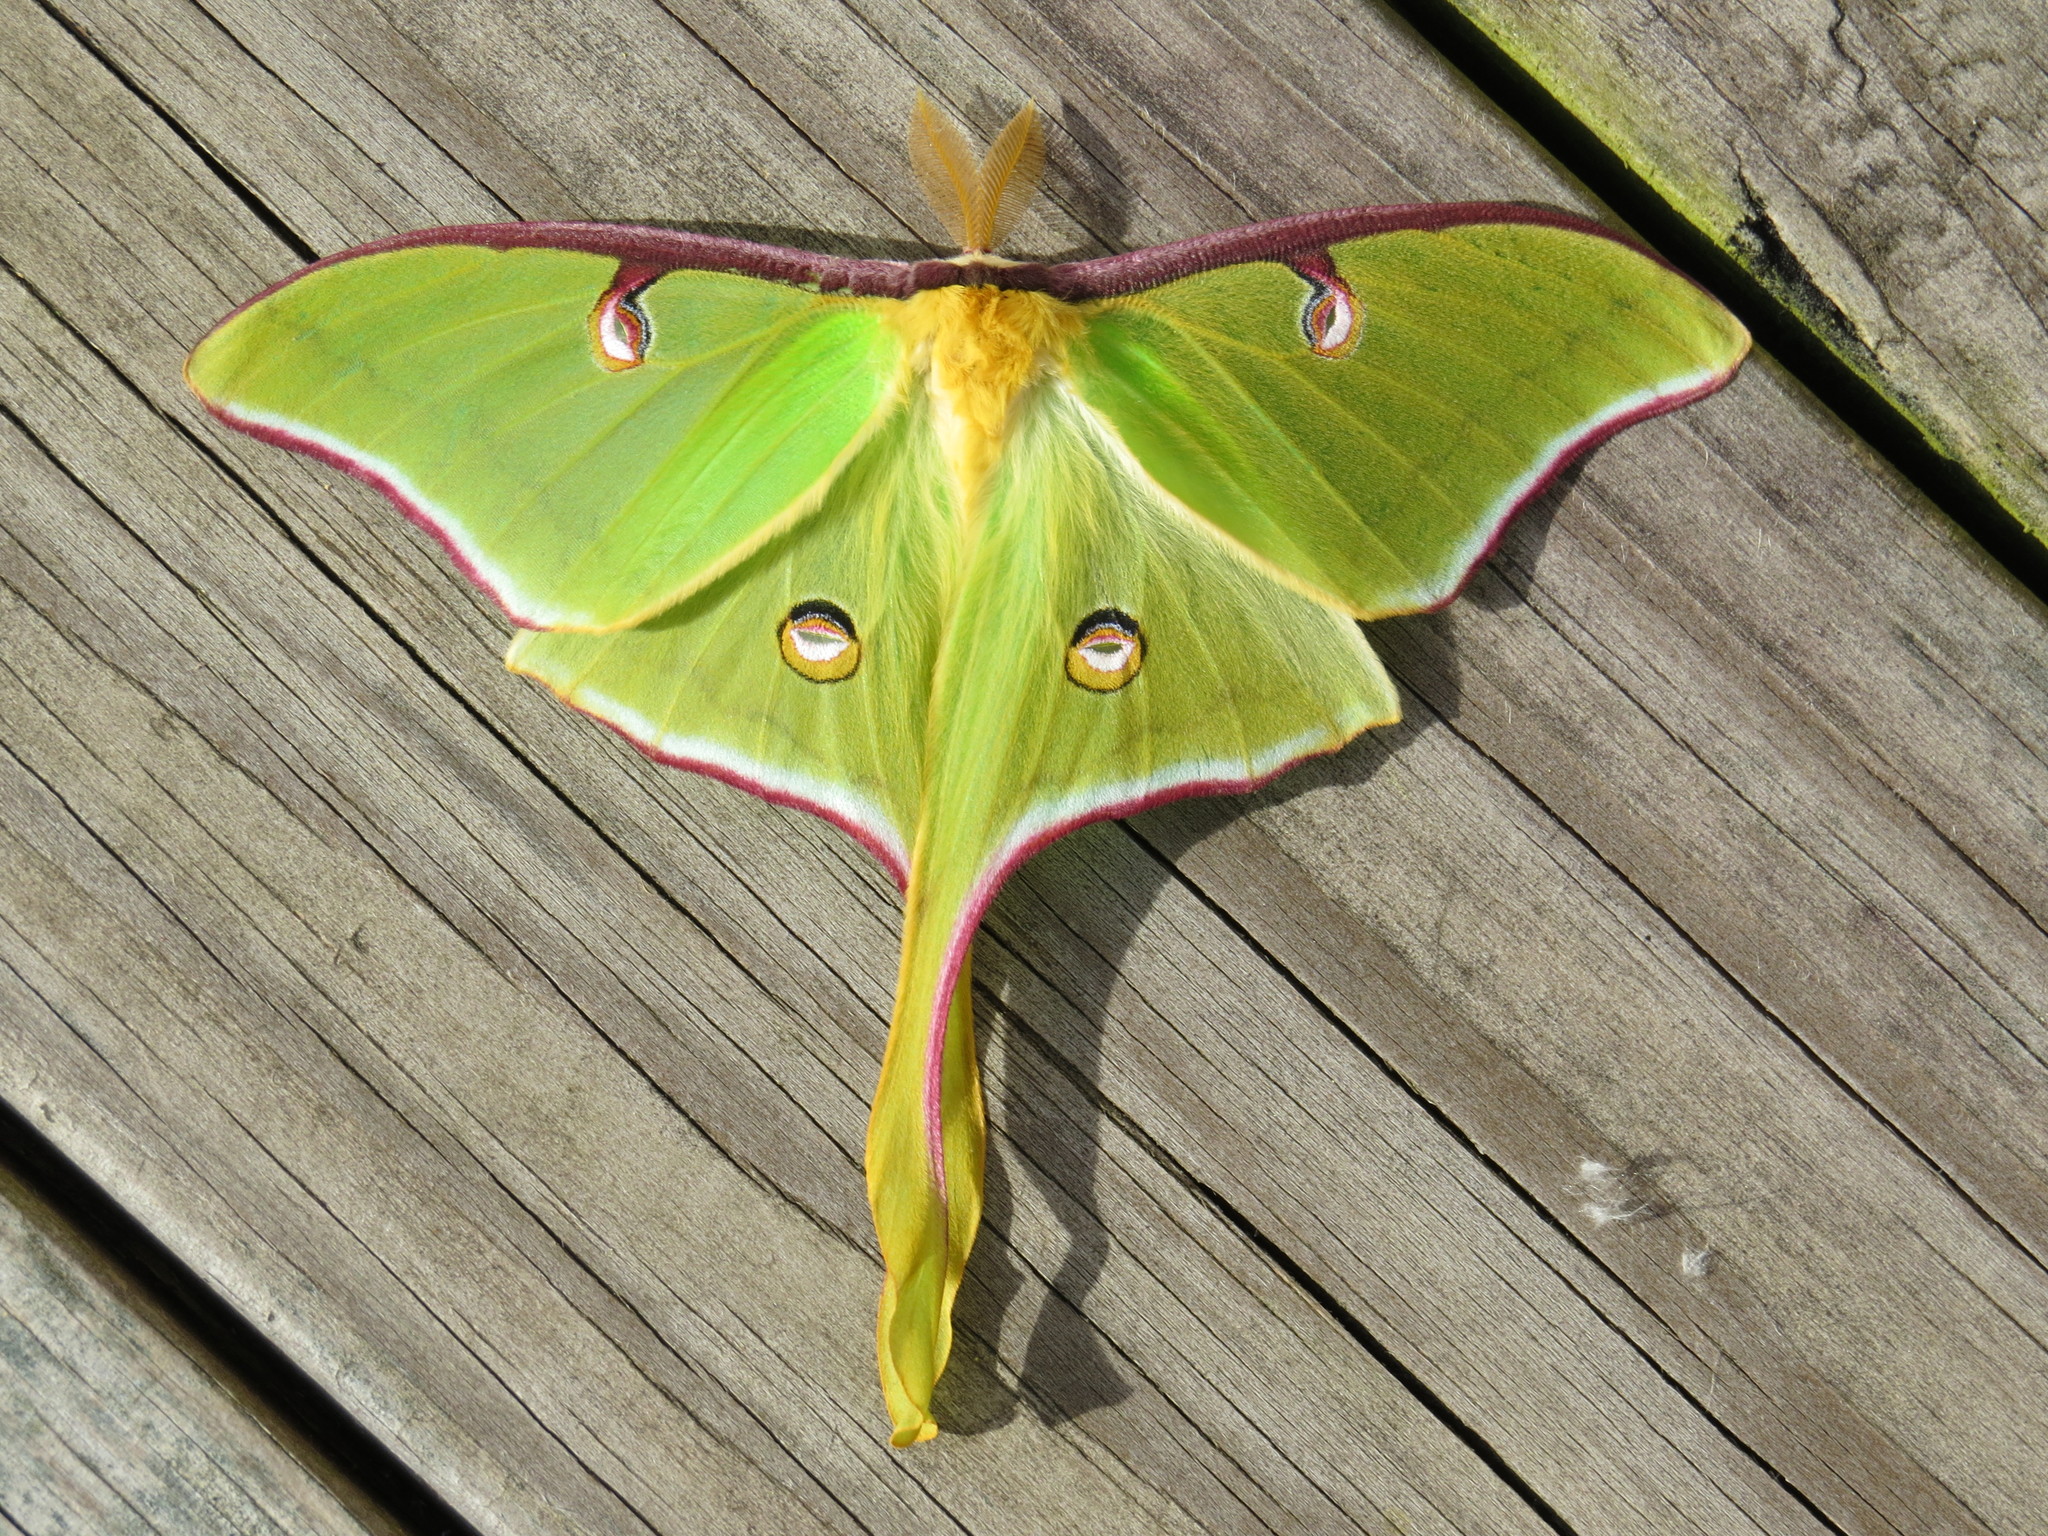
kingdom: Animalia
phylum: Arthropoda
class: Insecta
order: Lepidoptera
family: Saturniidae
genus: Actias
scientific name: Actias luna
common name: Luna moth
